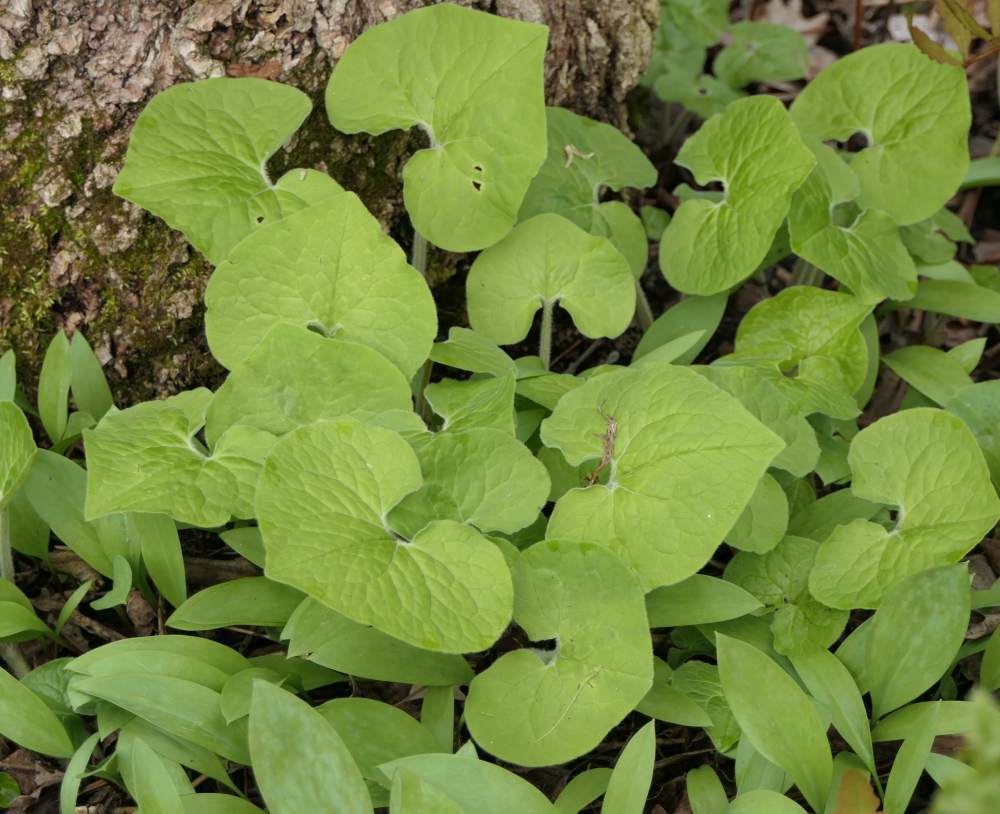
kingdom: Plantae
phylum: Tracheophyta
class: Magnoliopsida
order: Piperales
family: Aristolochiaceae
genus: Asarum
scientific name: Asarum canadense
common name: Wild ginger
